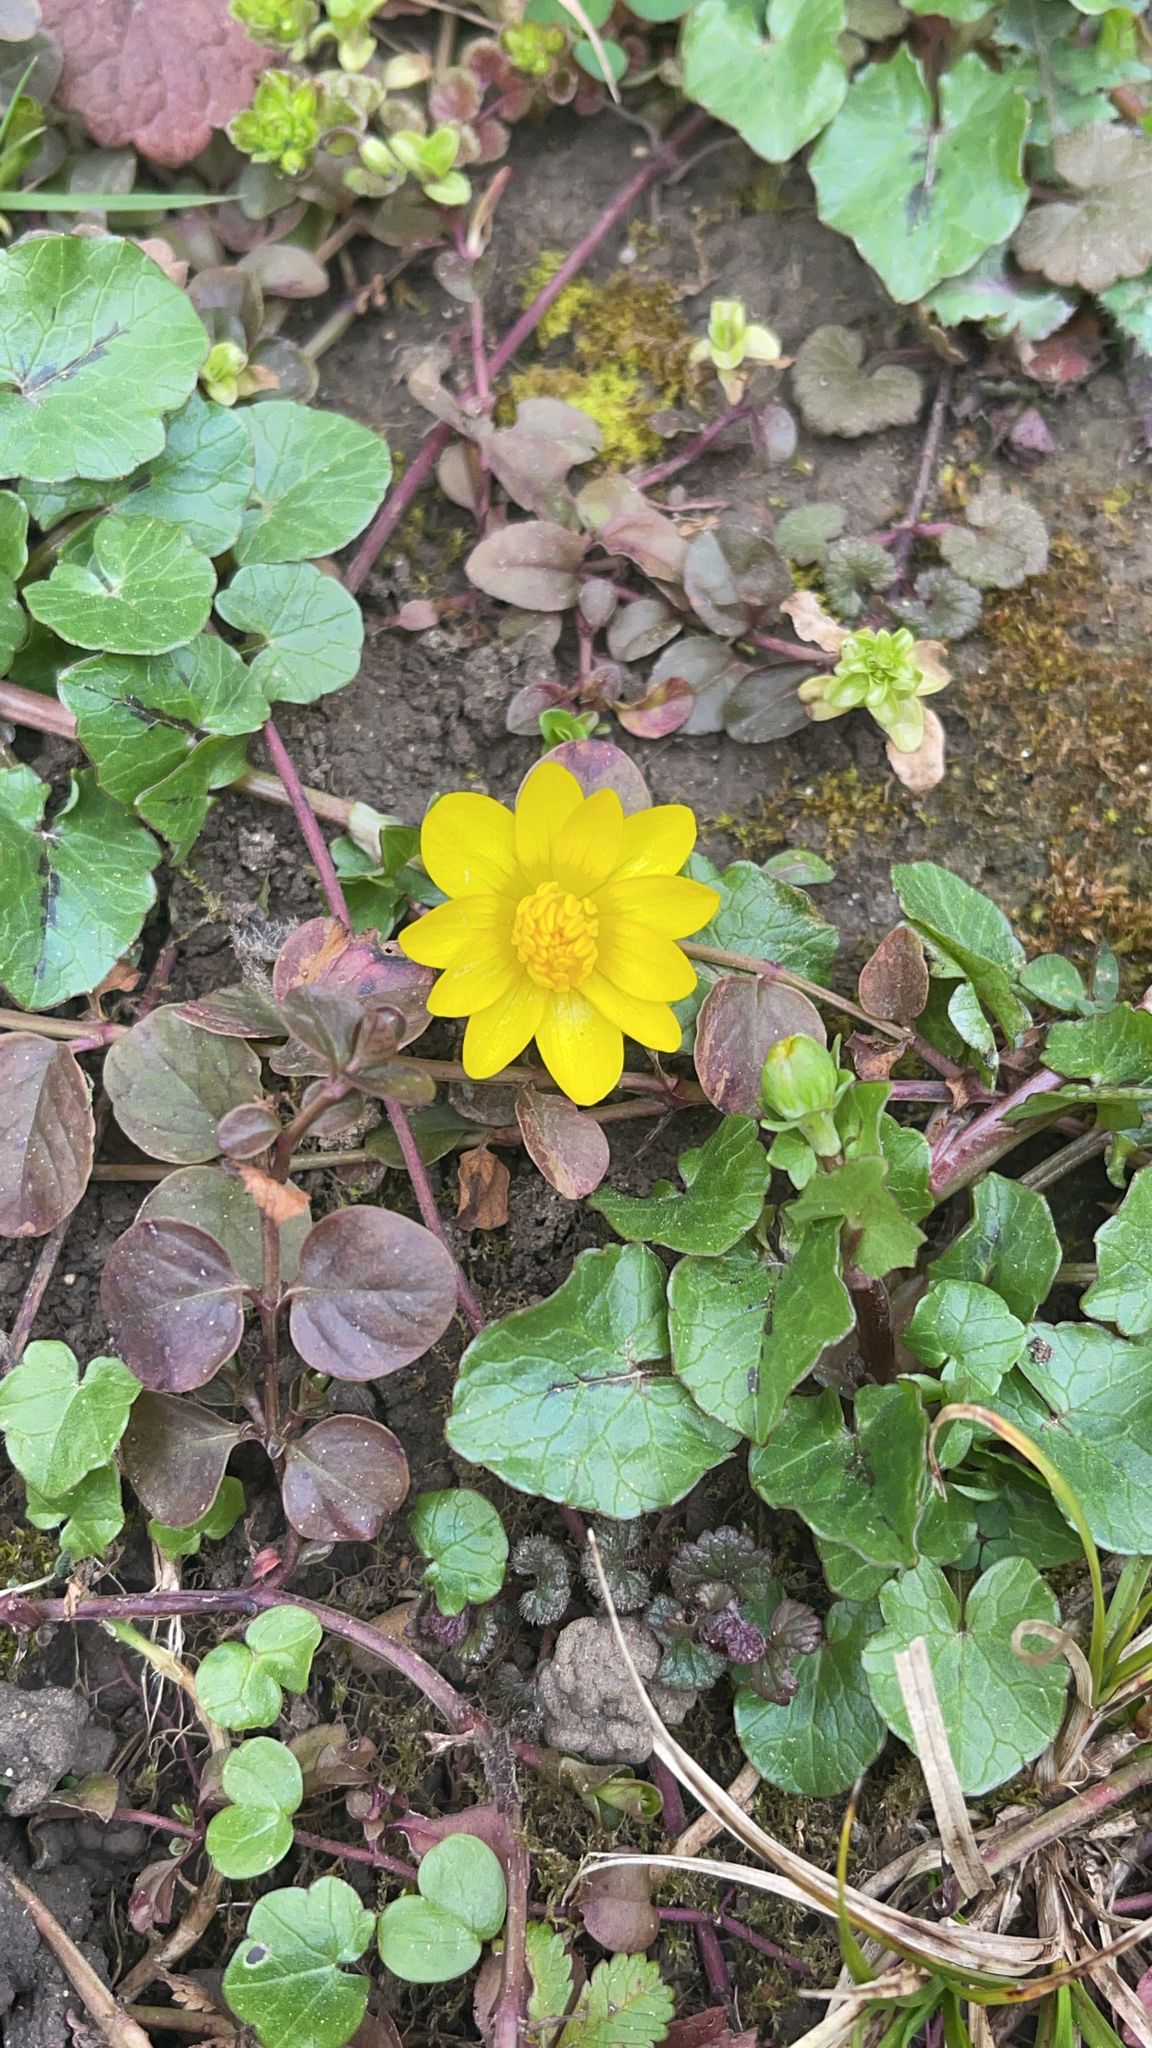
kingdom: Plantae
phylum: Tracheophyta
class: Magnoliopsida
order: Ranunculales
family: Ranunculaceae
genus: Ficaria
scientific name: Ficaria verna
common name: Lesser celandine
